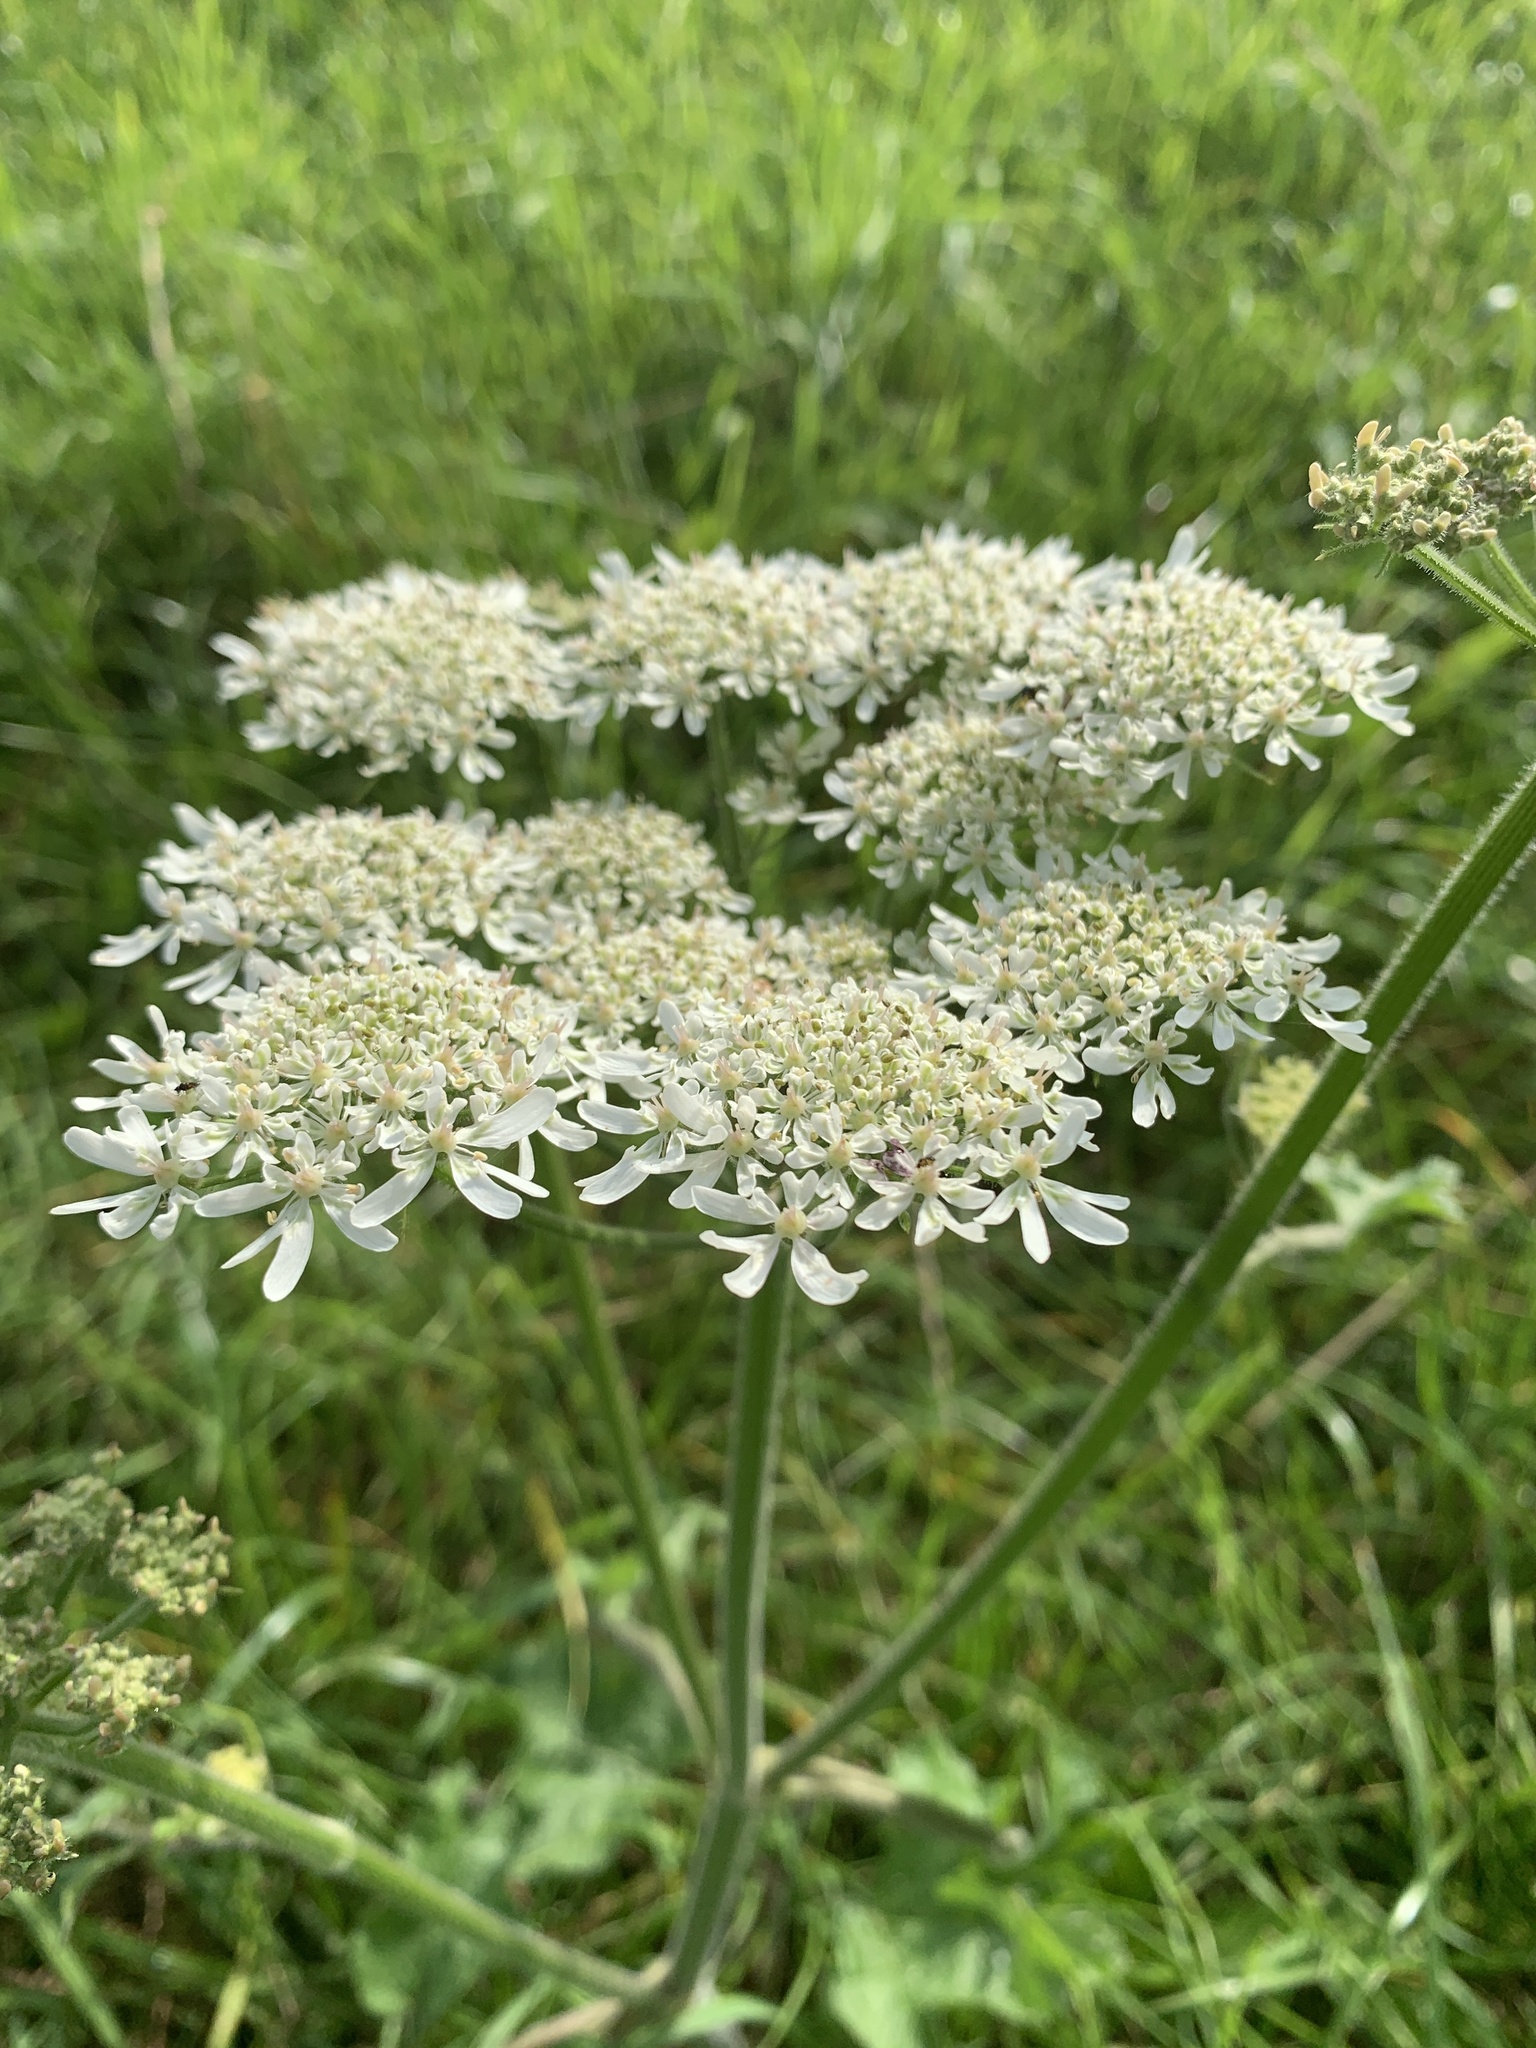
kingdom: Plantae
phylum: Tracheophyta
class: Magnoliopsida
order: Apiales
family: Apiaceae
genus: Heracleum
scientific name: Heracleum sphondylium
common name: Hogweed
